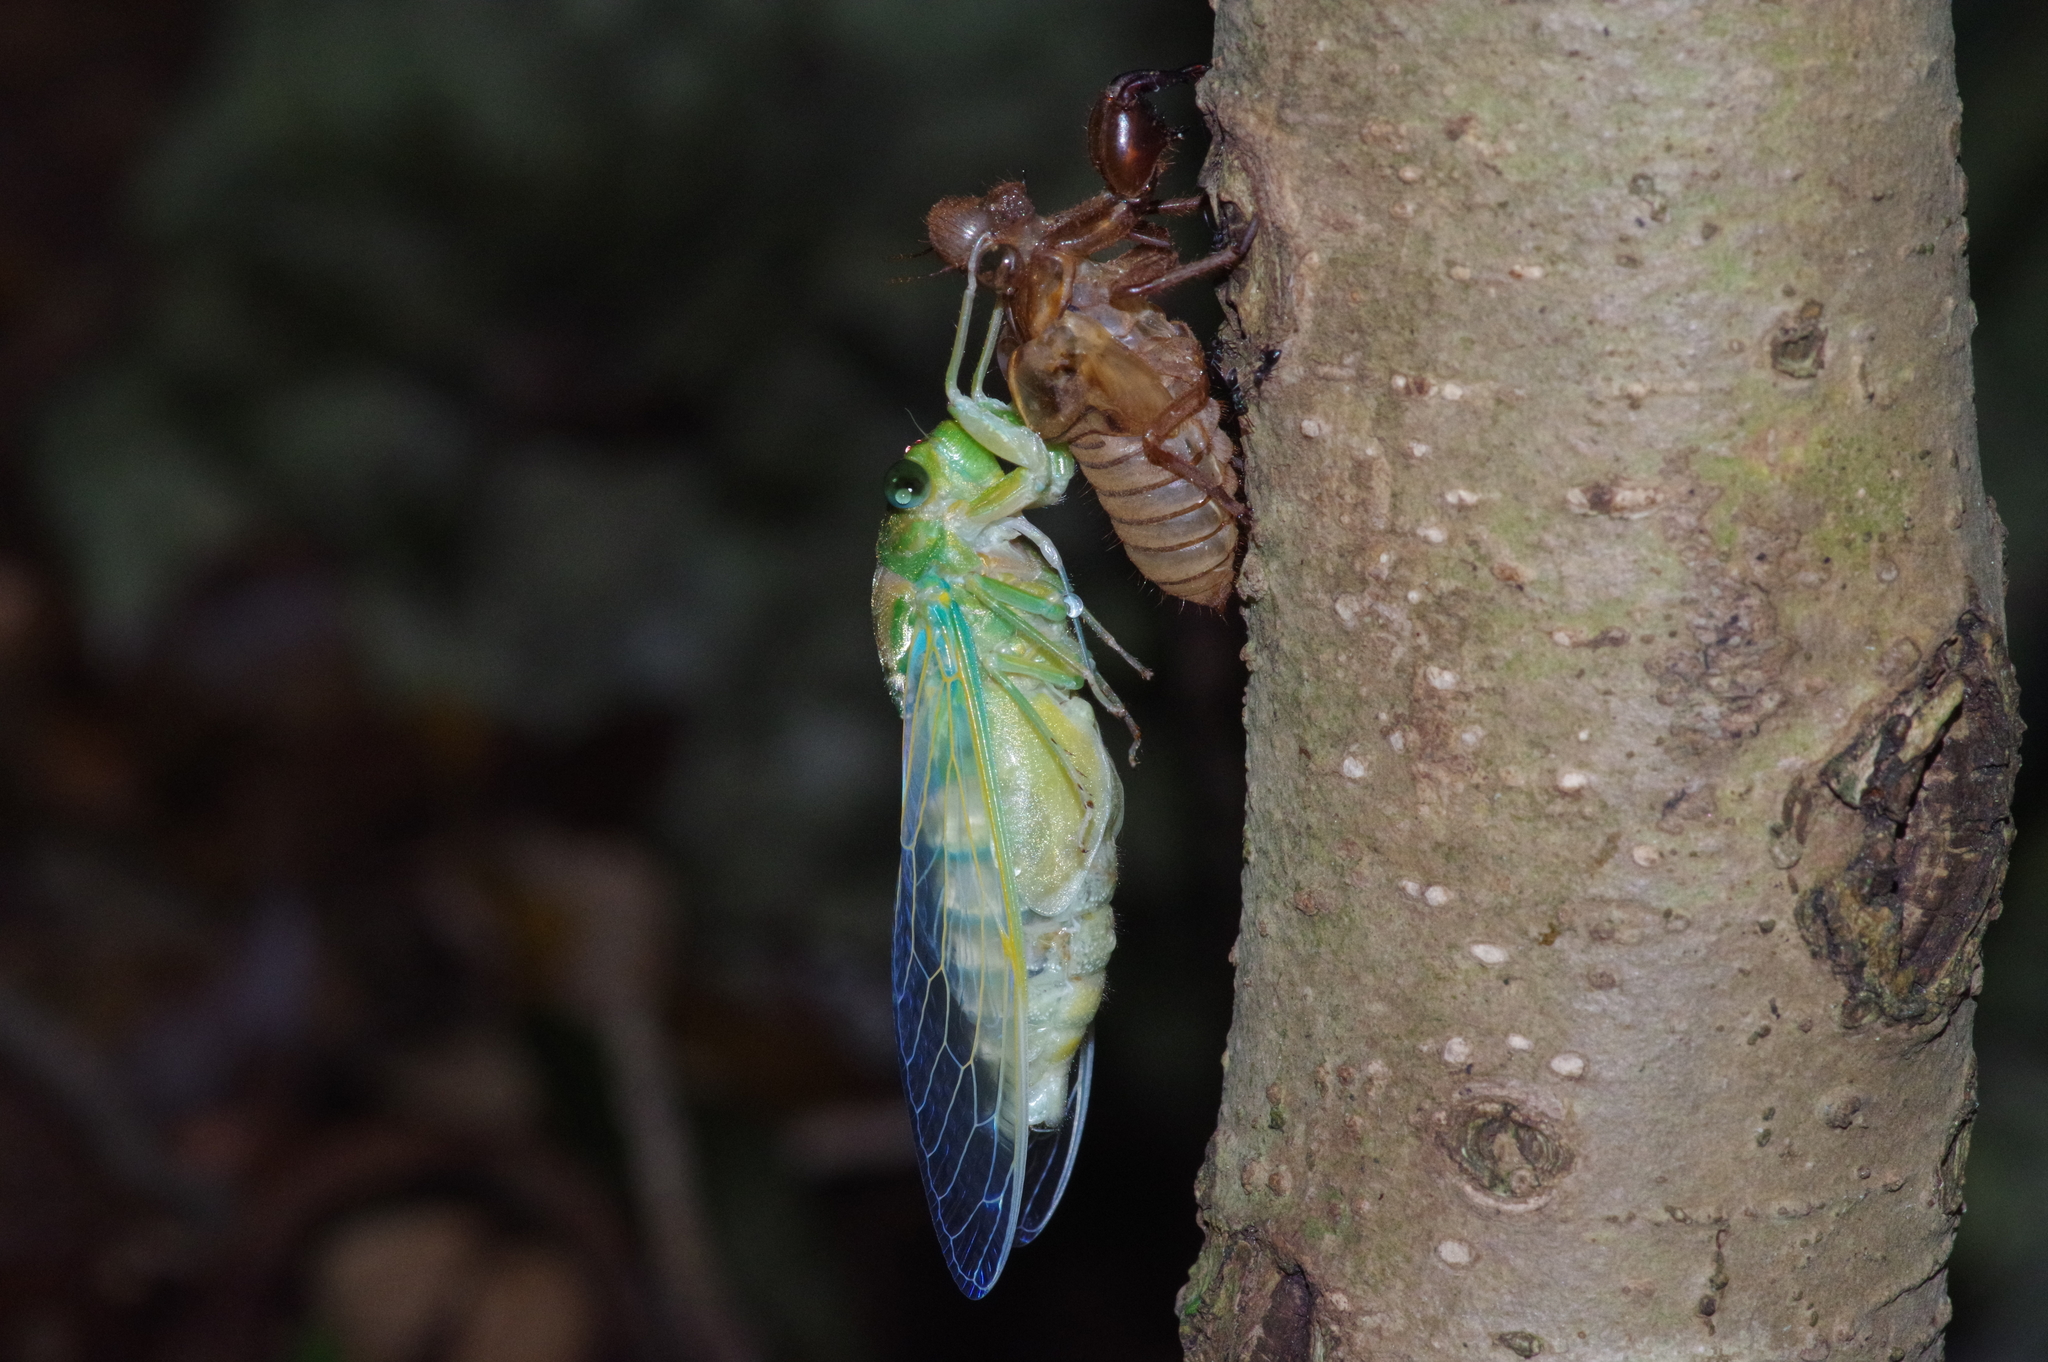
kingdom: Animalia
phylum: Arthropoda
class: Insecta
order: Hemiptera
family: Cicadidae
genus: Meimuna
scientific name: Meimuna oshimensis
